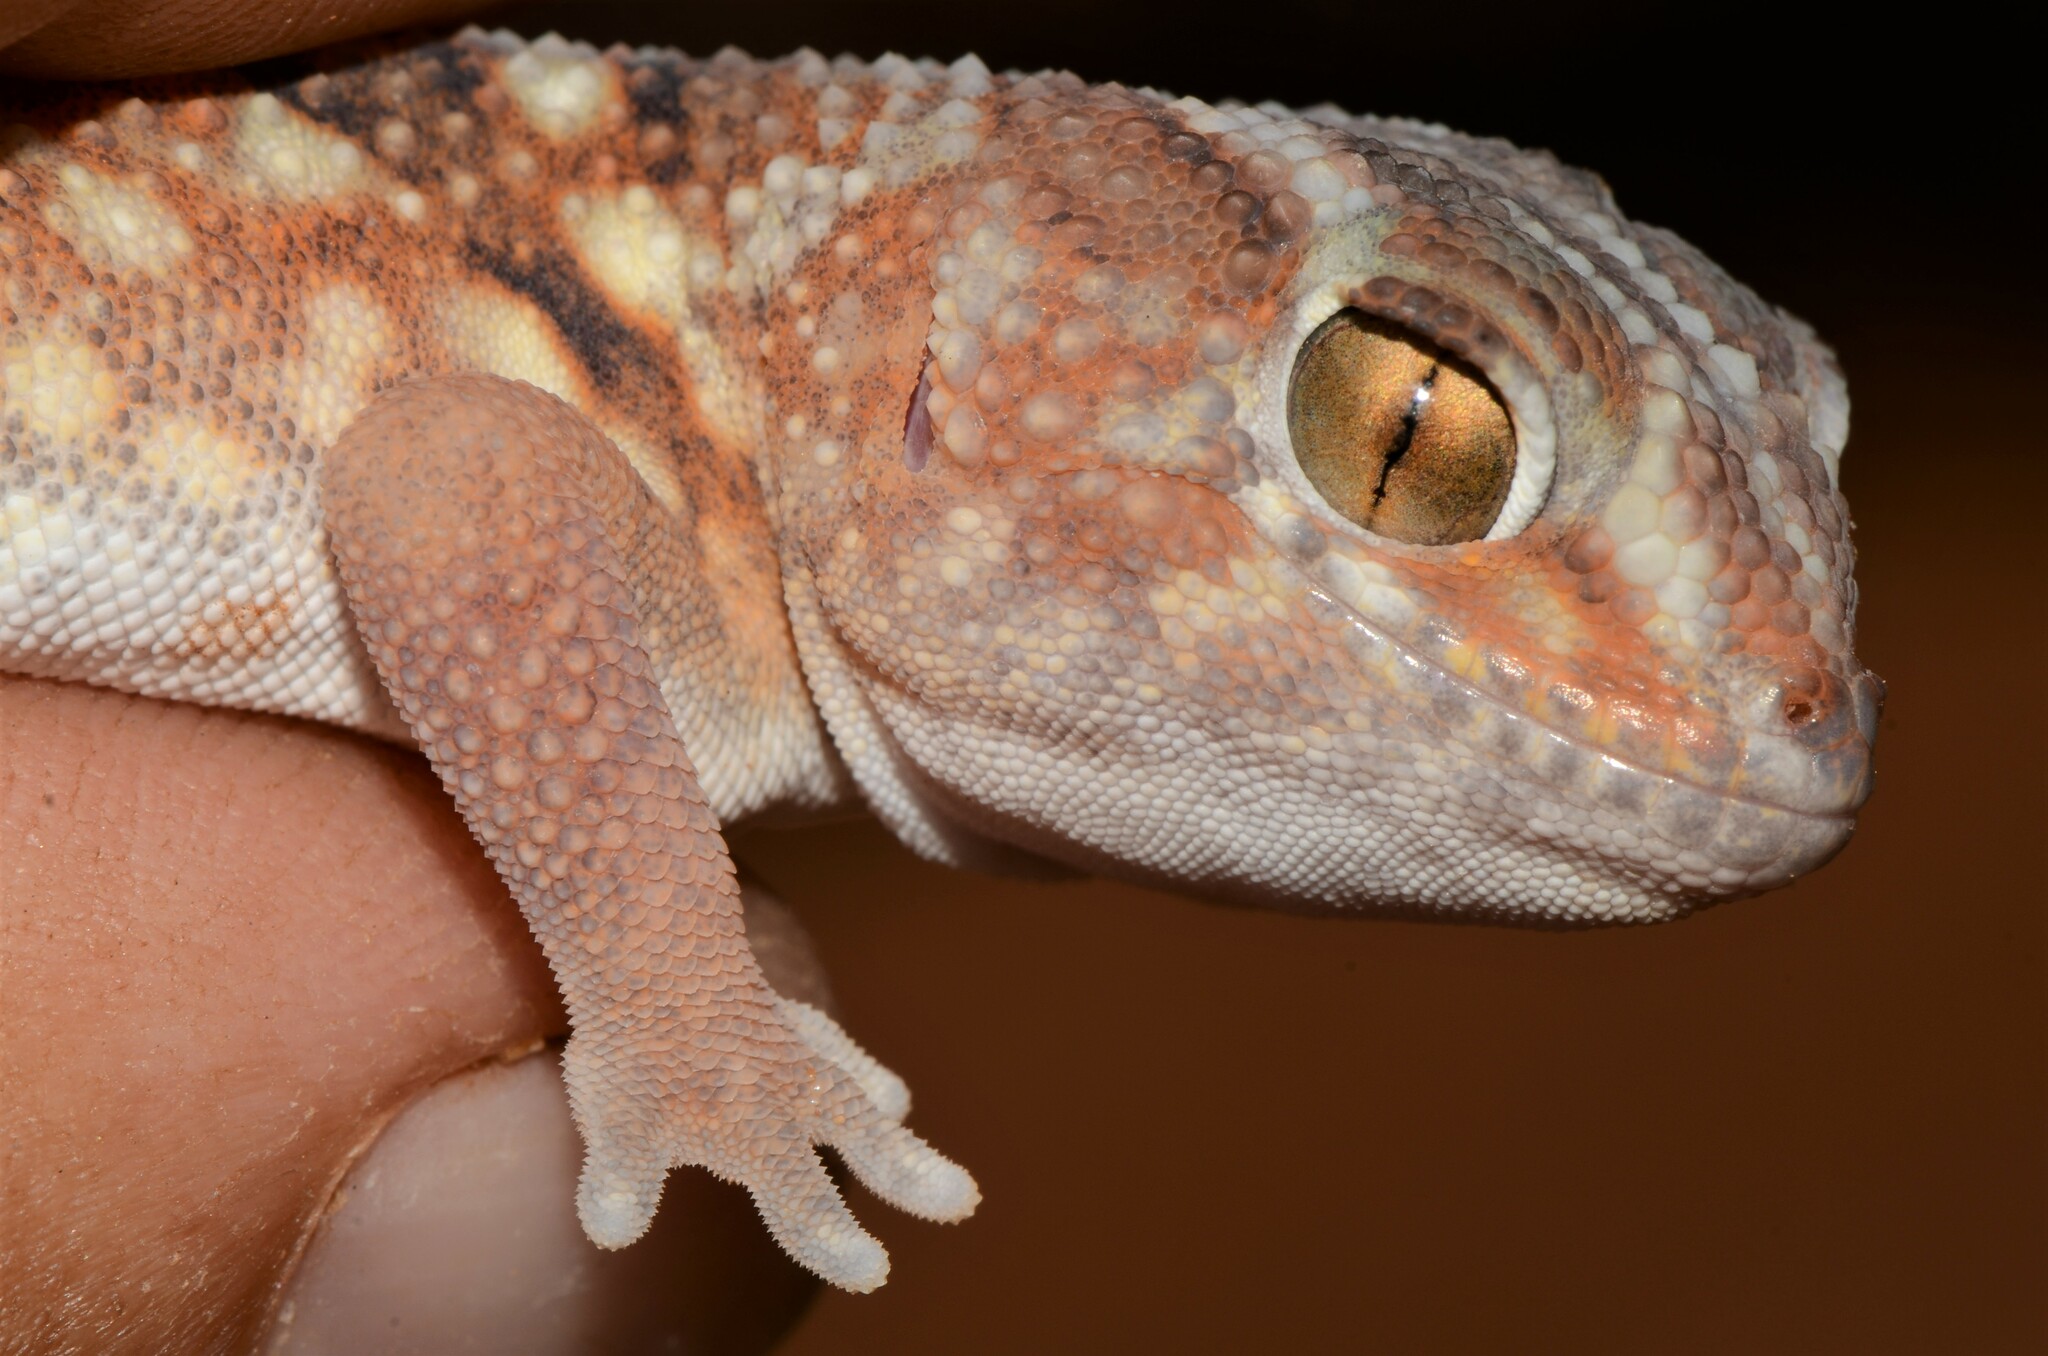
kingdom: Animalia
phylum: Chordata
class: Squamata
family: Gekkonidae
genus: Chondrodactylus
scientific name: Chondrodactylus angulifer
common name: Common giant ground gecko
